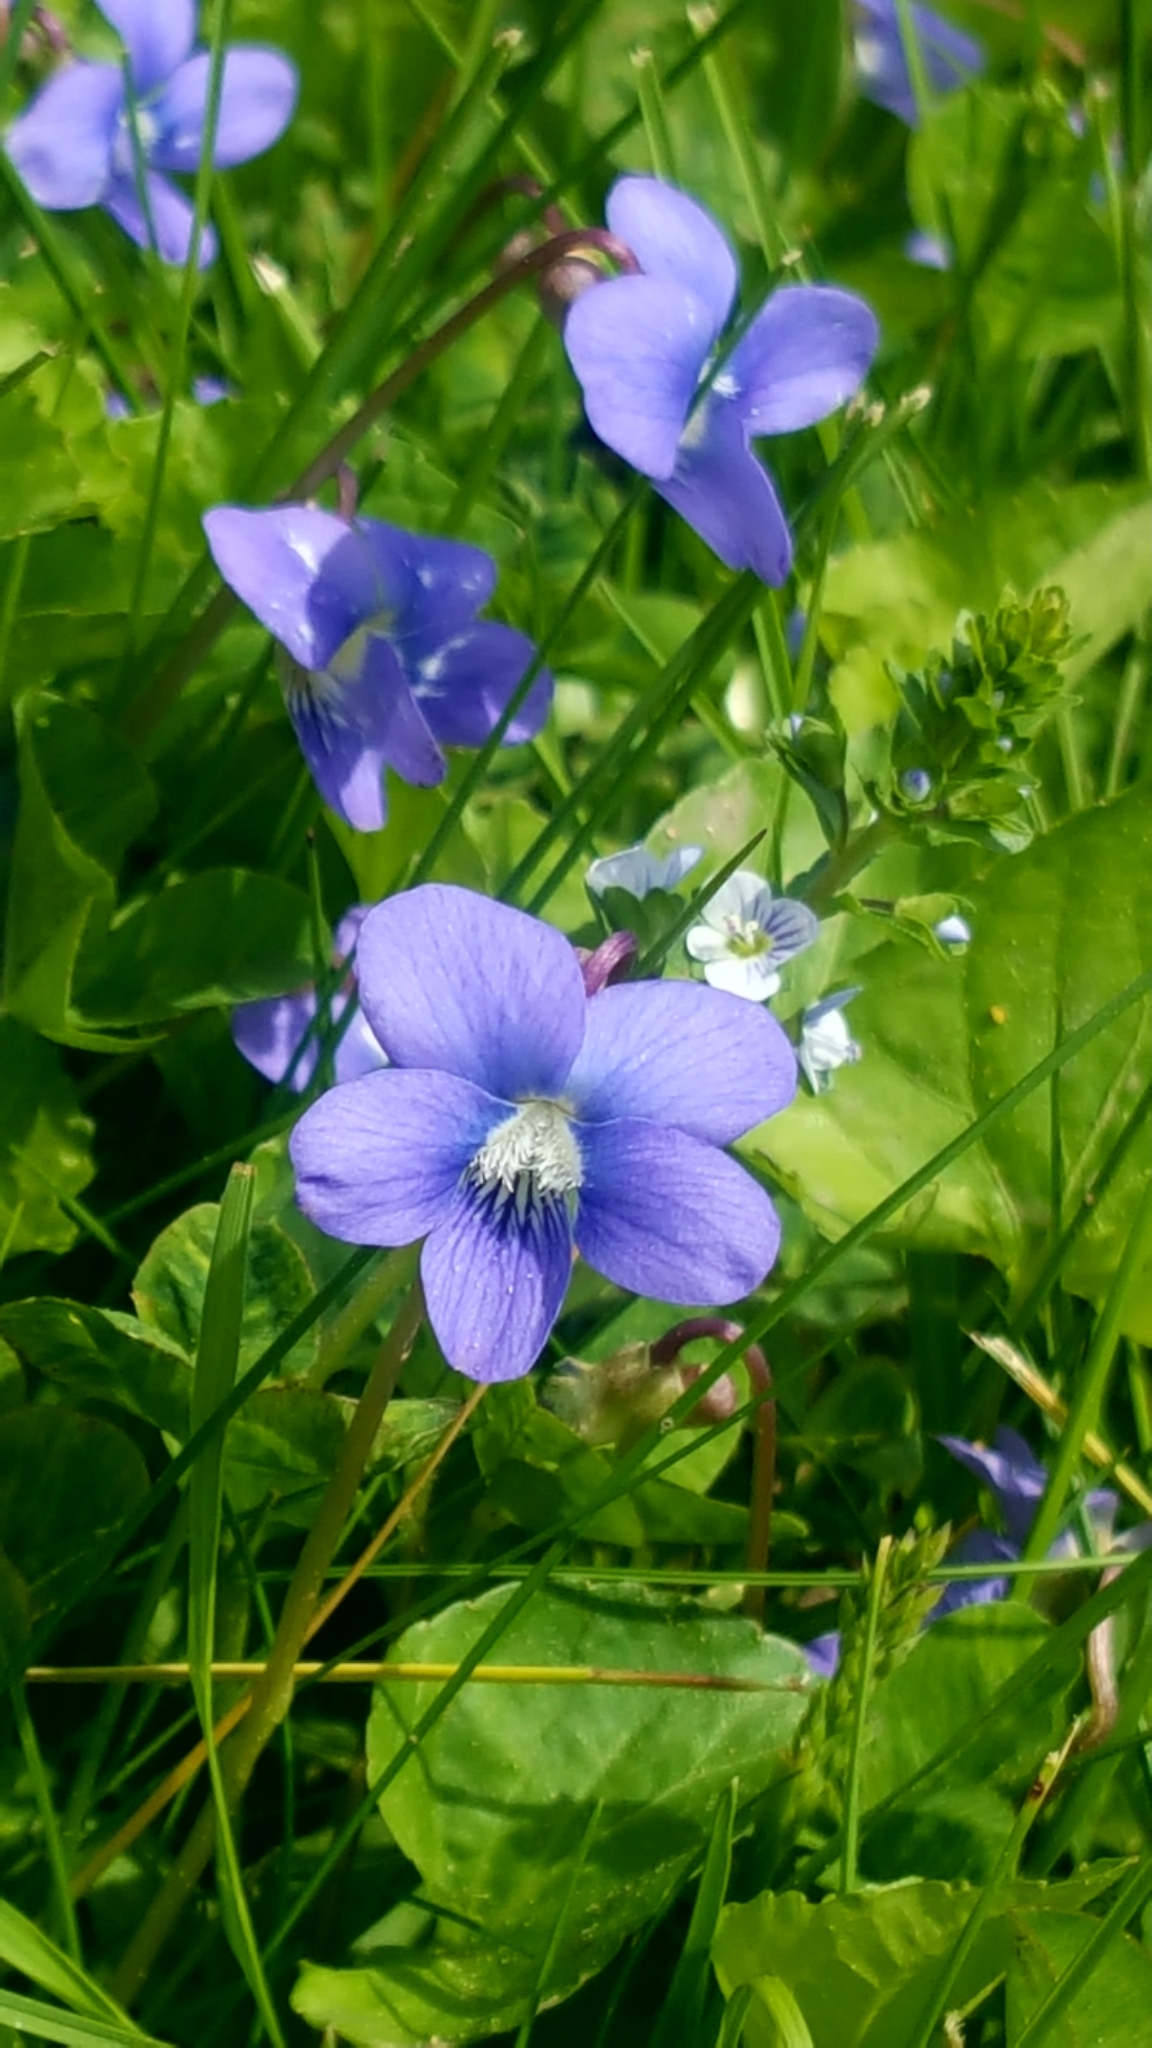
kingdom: Plantae
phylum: Tracheophyta
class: Magnoliopsida
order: Malpighiales
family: Violaceae
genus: Viola
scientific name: Viola sororia
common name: Dooryard violet
